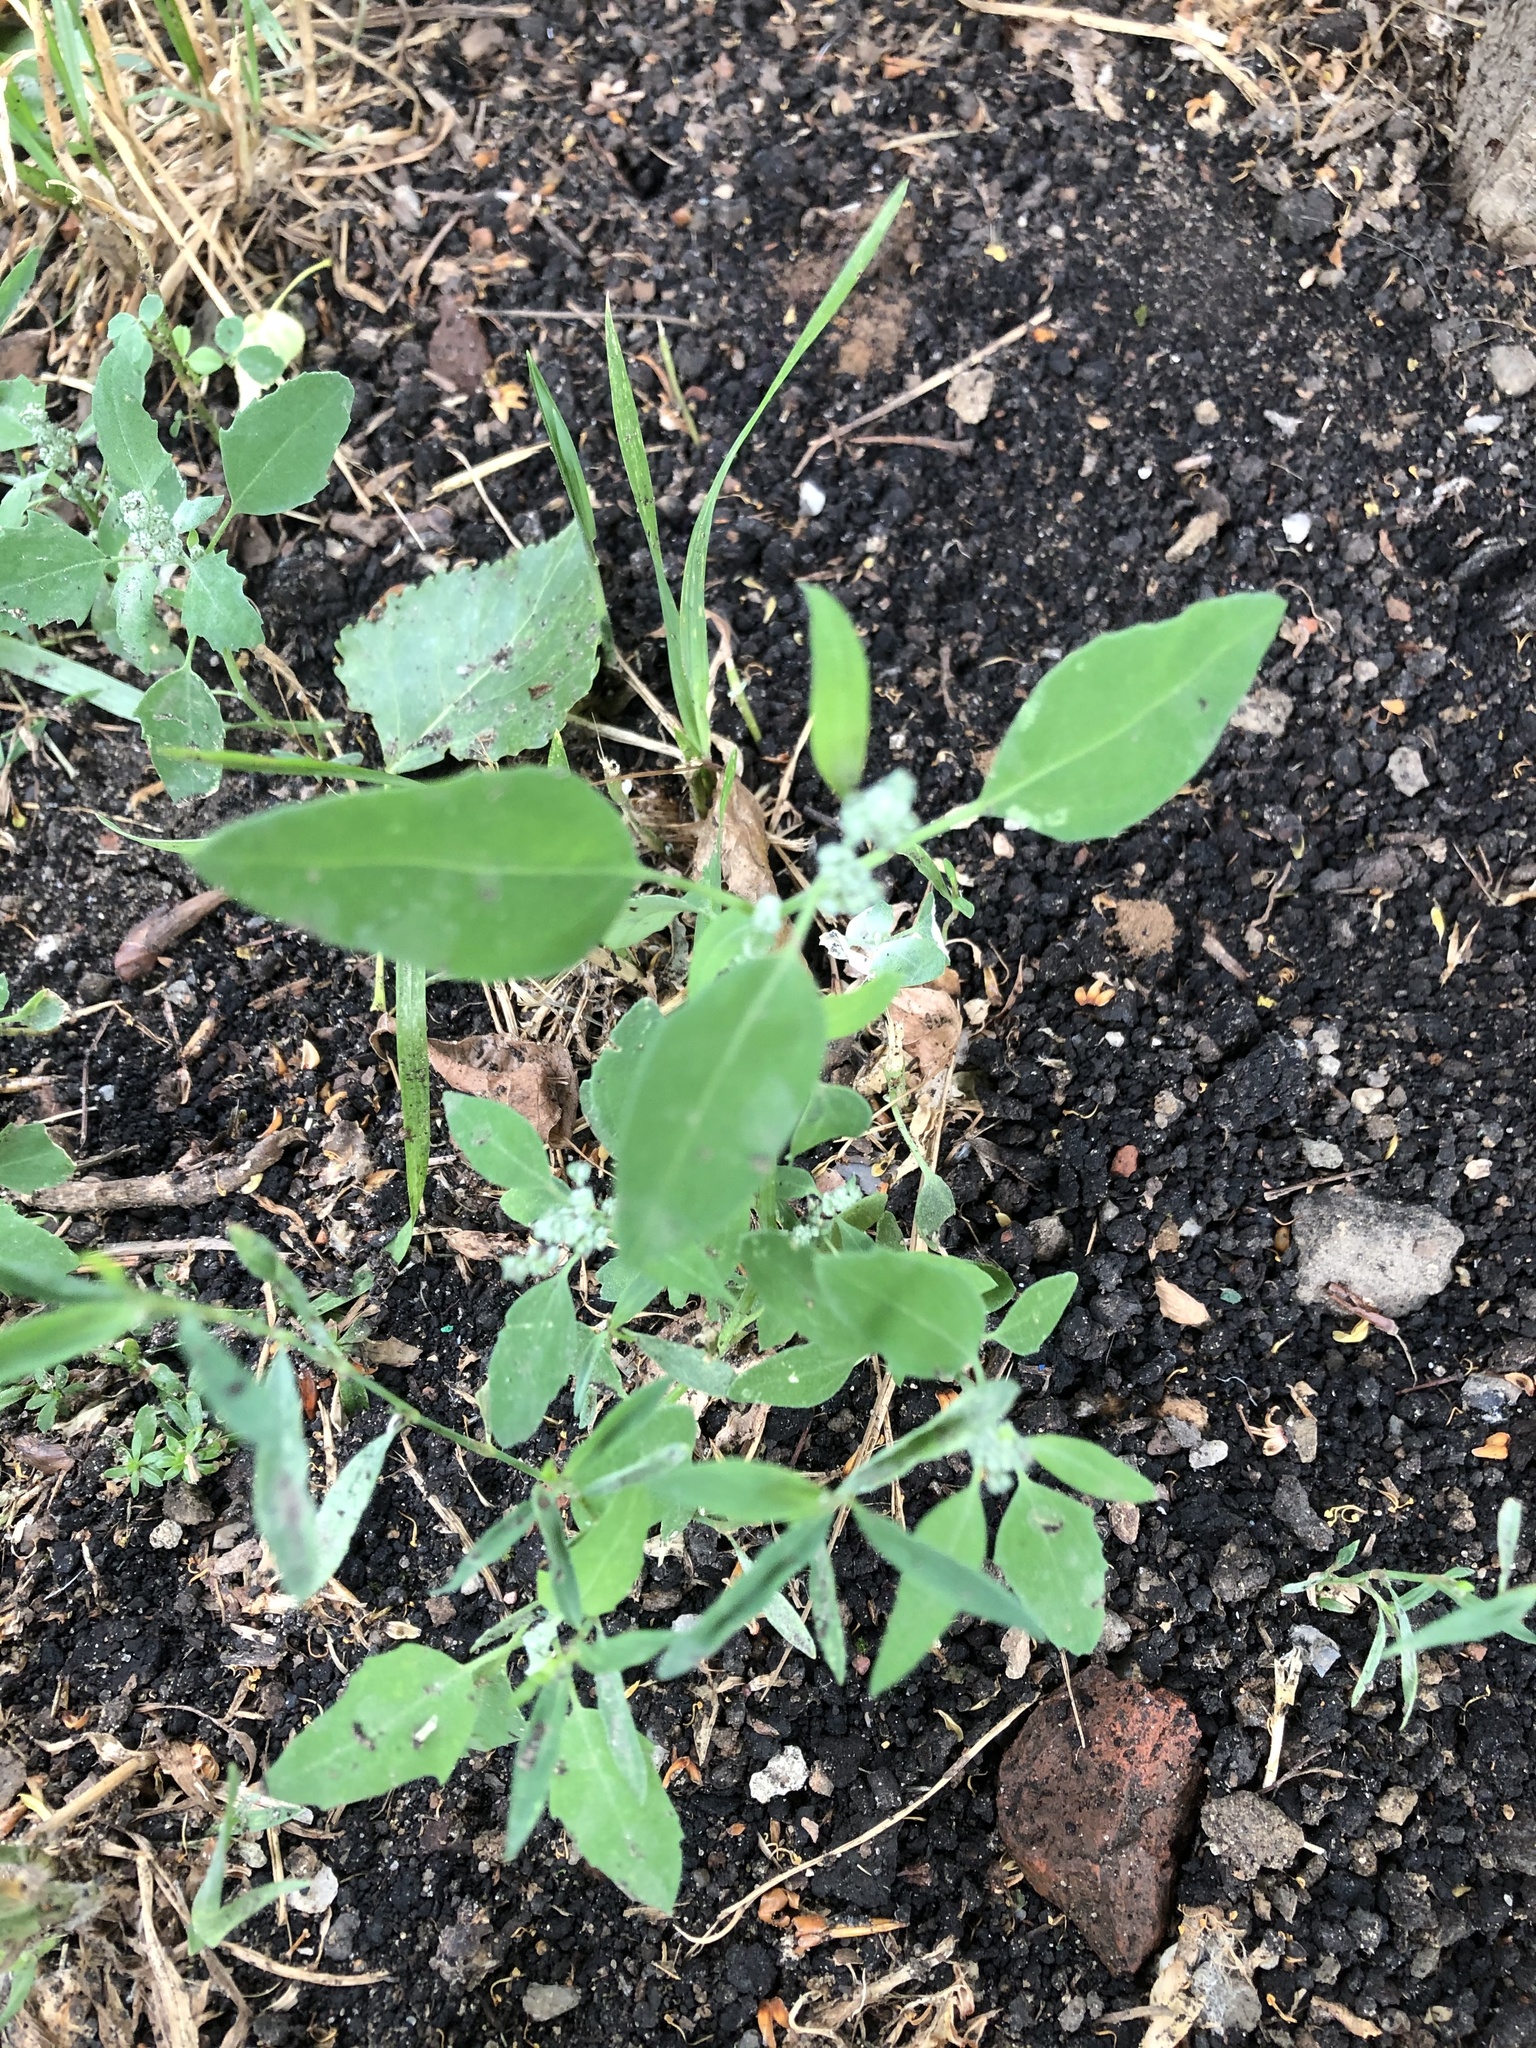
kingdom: Plantae
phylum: Tracheophyta
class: Magnoliopsida
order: Caryophyllales
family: Amaranthaceae
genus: Chenopodium
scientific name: Chenopodium album
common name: Fat-hen
